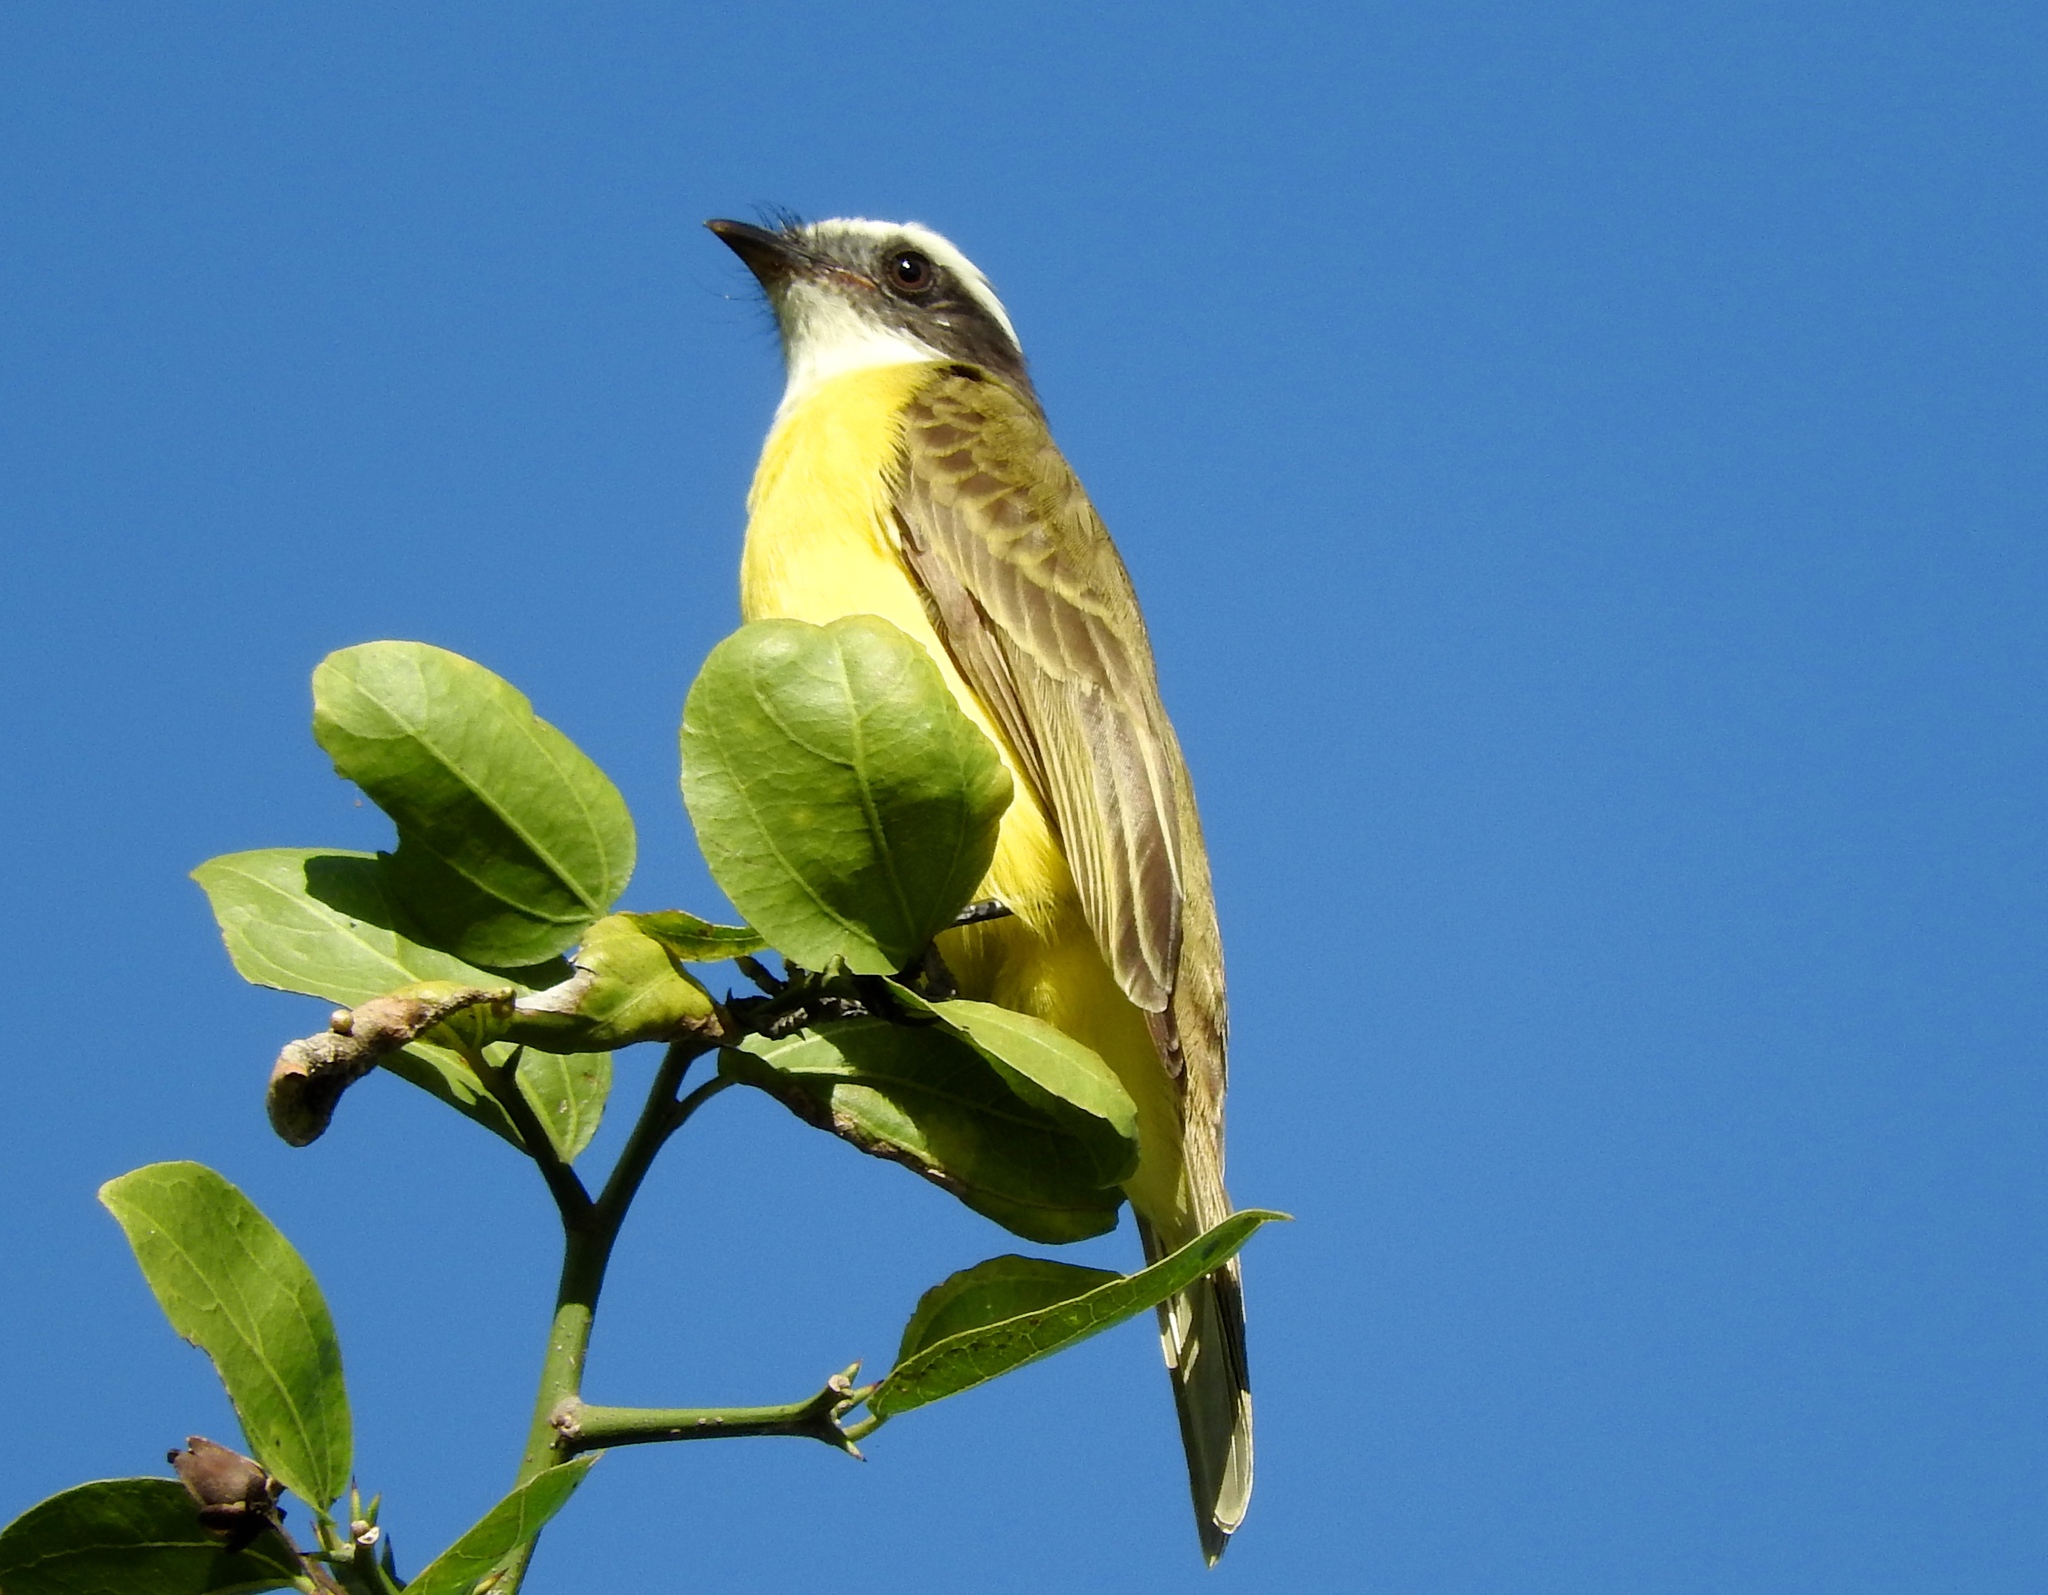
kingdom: Animalia
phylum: Chordata
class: Aves
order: Passeriformes
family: Tyrannidae
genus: Myiozetetes
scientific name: Myiozetetes similis
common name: Social flycatcher
